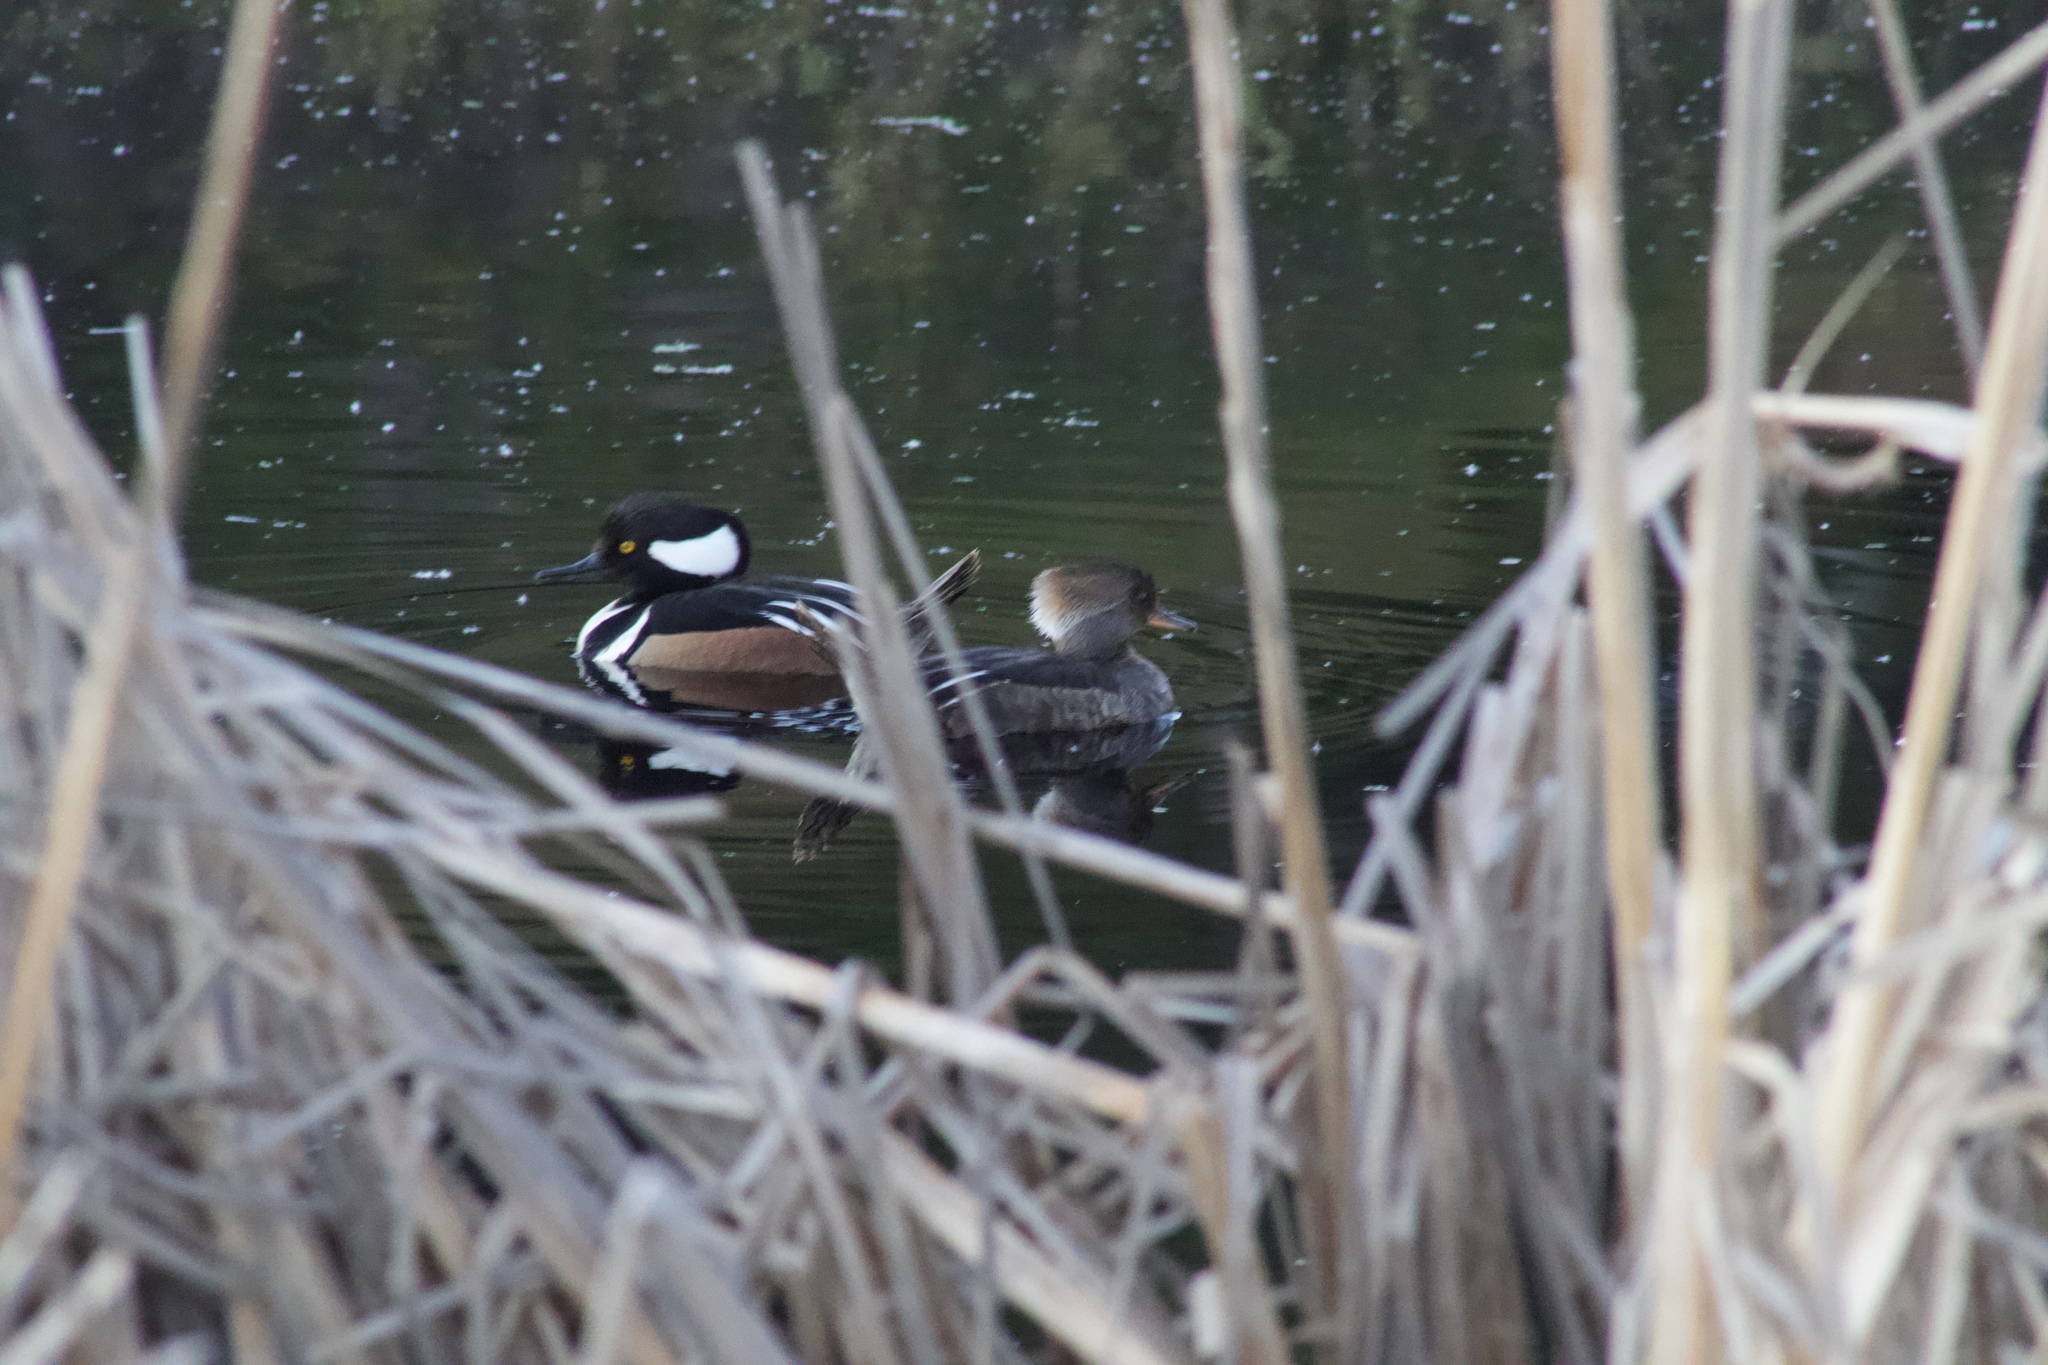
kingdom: Animalia
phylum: Chordata
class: Aves
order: Anseriformes
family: Anatidae
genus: Lophodytes
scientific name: Lophodytes cucullatus
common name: Hooded merganser
